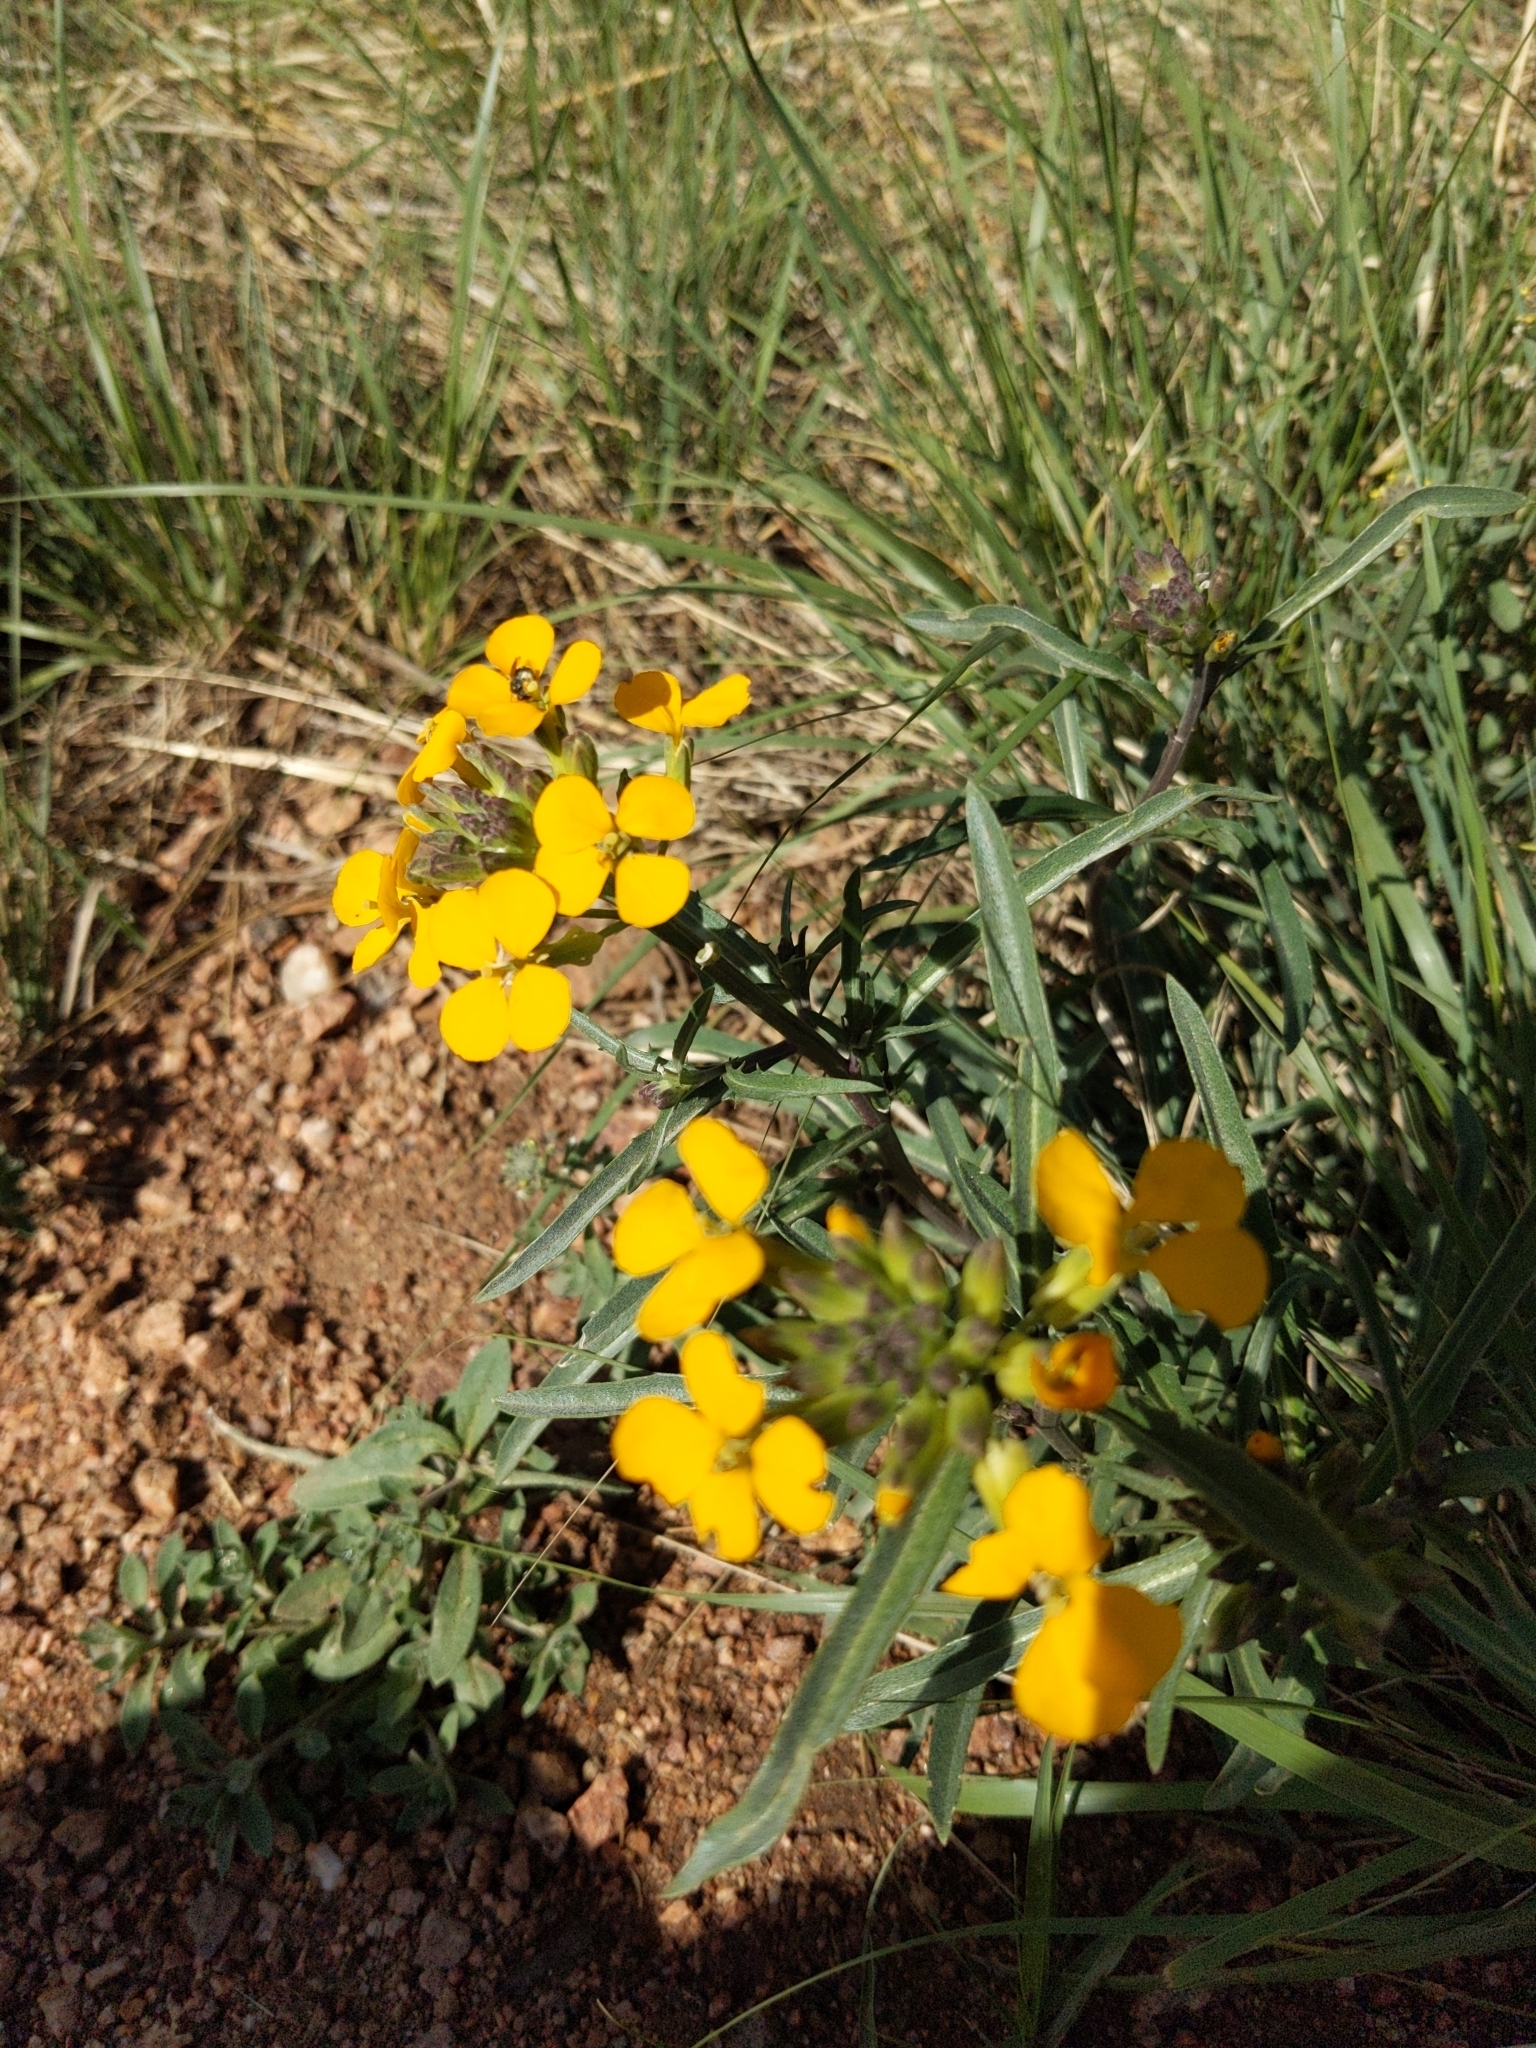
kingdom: Plantae
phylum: Tracheophyta
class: Magnoliopsida
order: Brassicales
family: Brassicaceae
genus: Erysimum
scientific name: Erysimum capitatum
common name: Western wallflower
